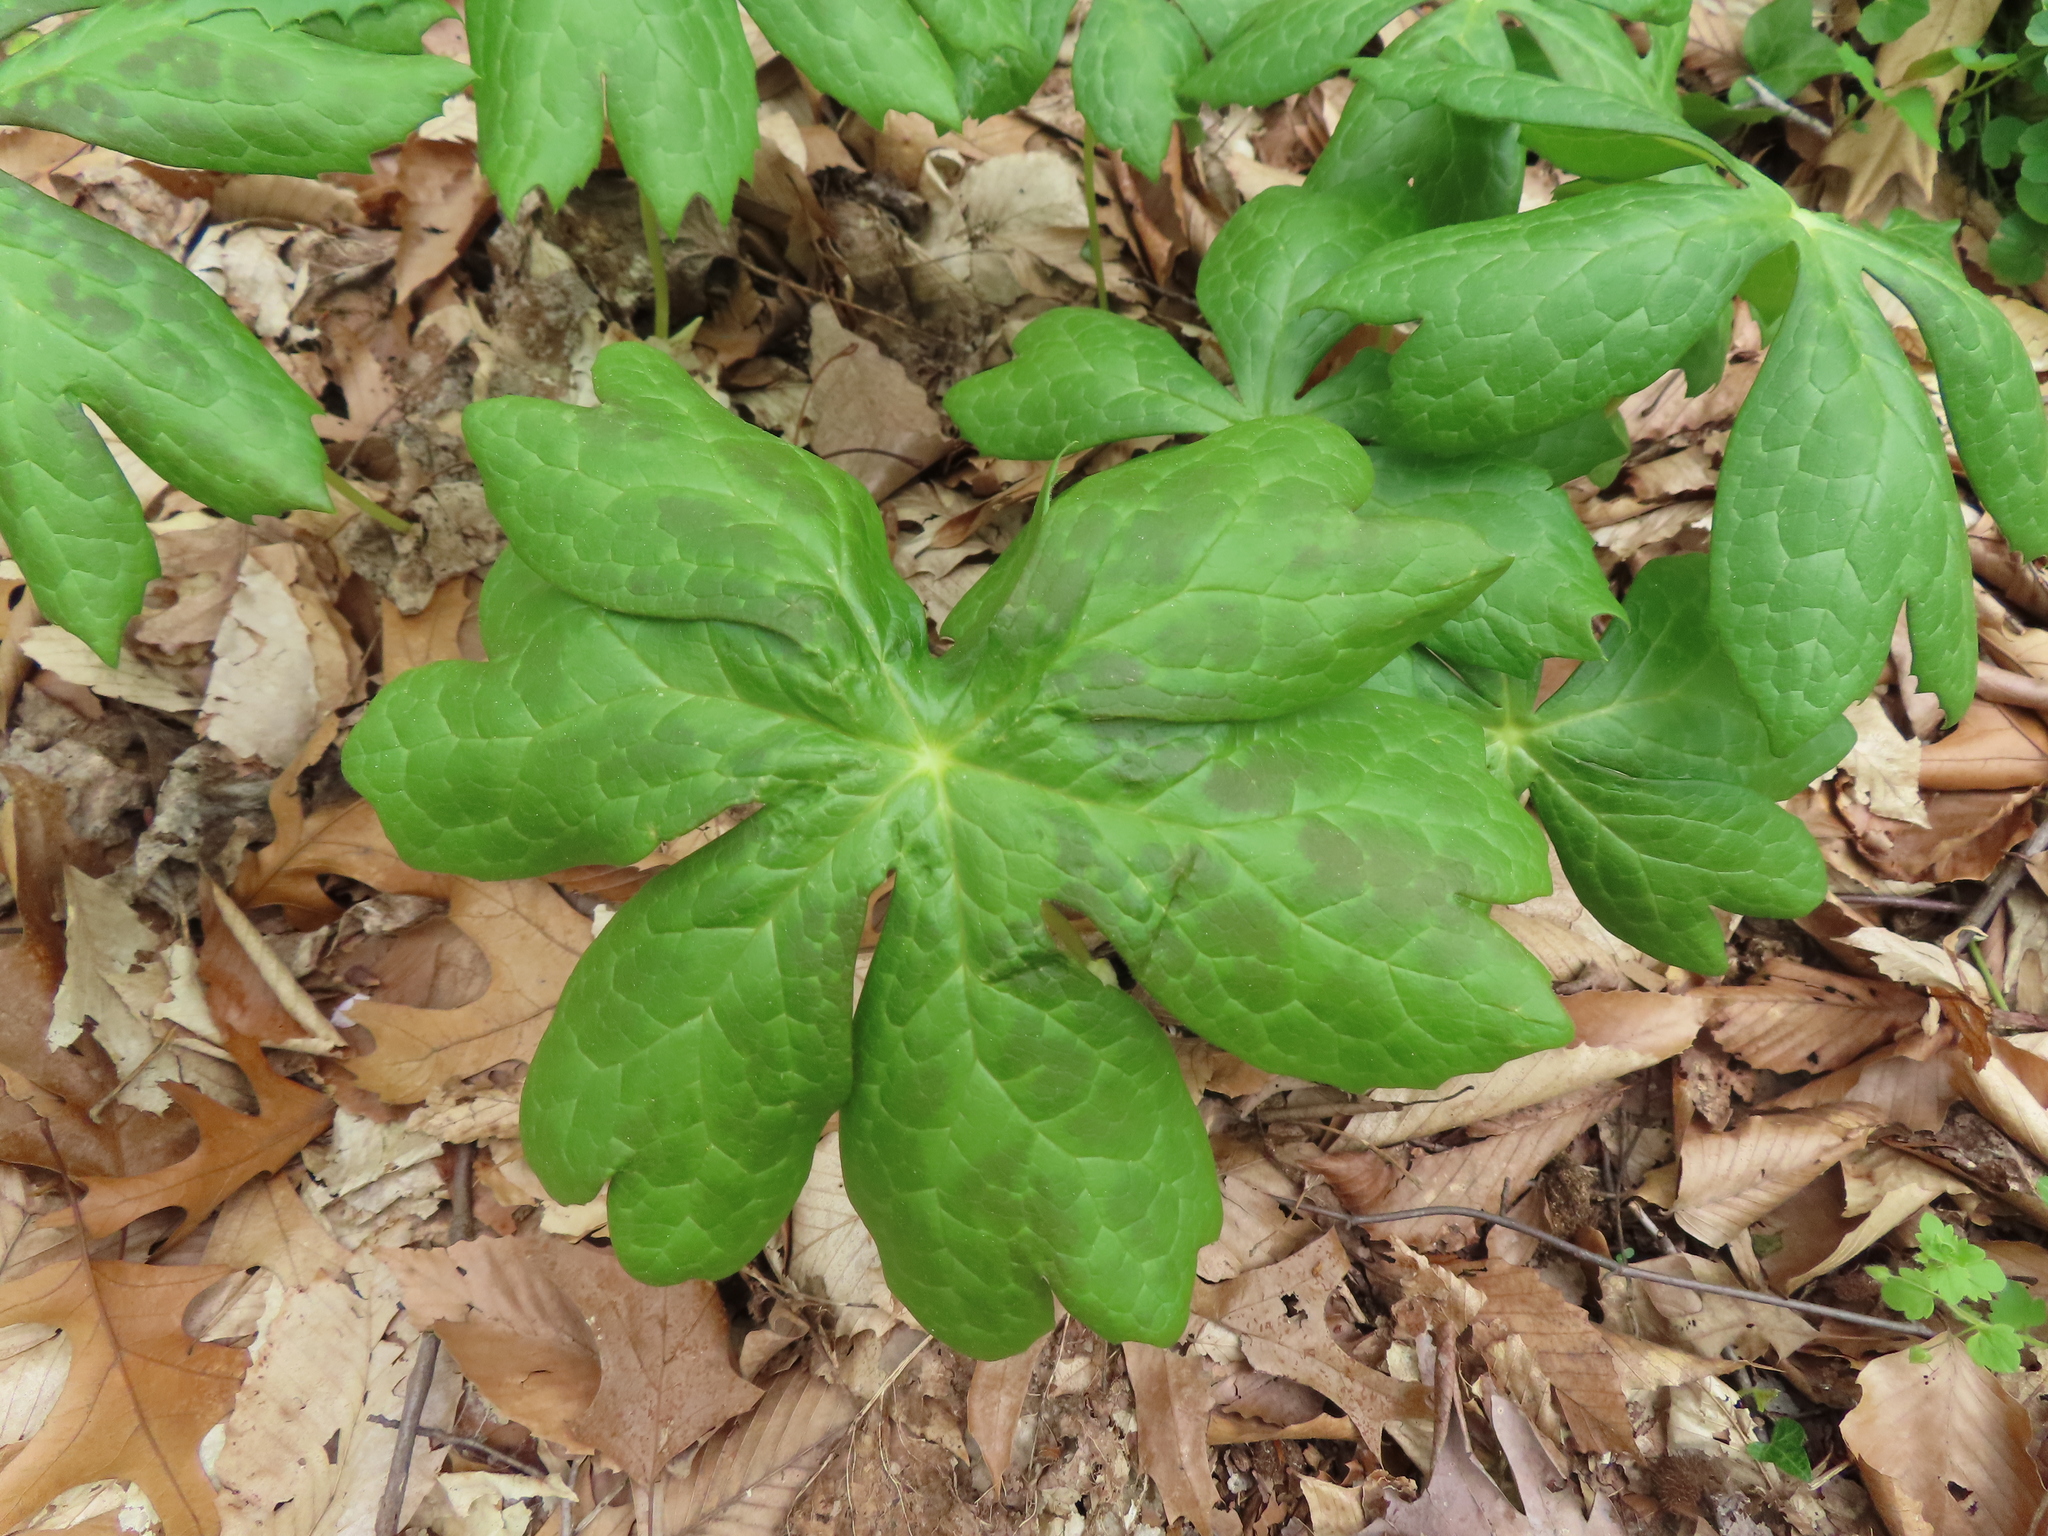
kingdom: Plantae
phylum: Tracheophyta
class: Magnoliopsida
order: Ranunculales
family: Berberidaceae
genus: Podophyllum
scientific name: Podophyllum peltatum
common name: Wild mandrake
